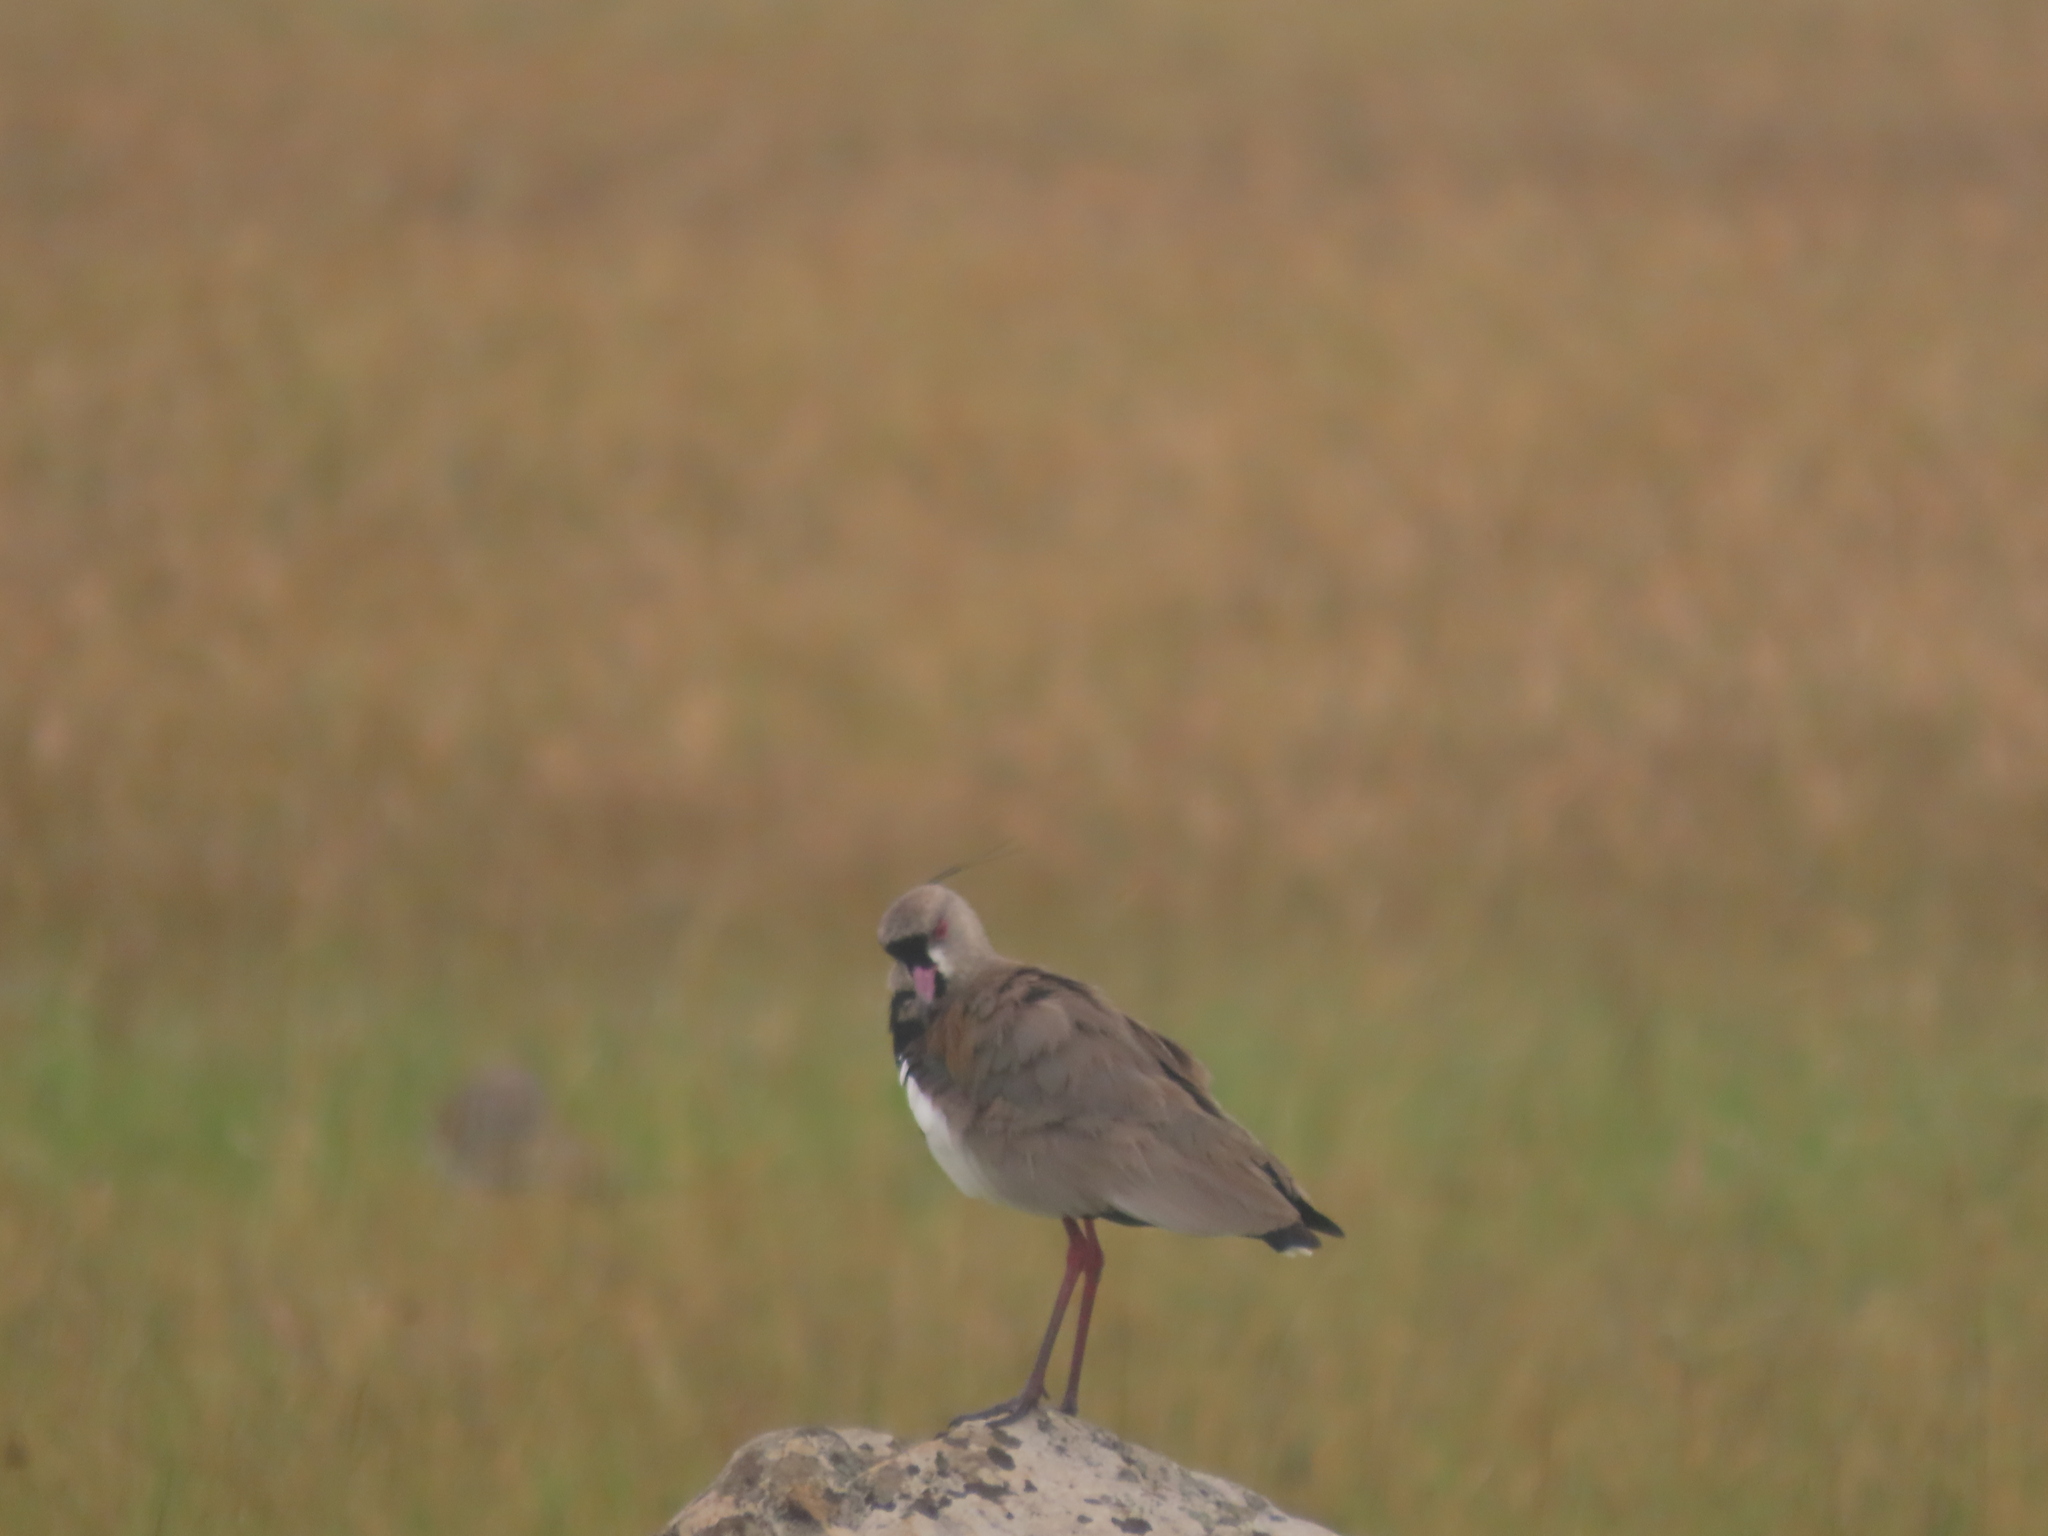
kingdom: Animalia
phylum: Chordata
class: Aves
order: Charadriiformes
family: Charadriidae
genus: Vanellus
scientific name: Vanellus chilensis
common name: Southern lapwing
